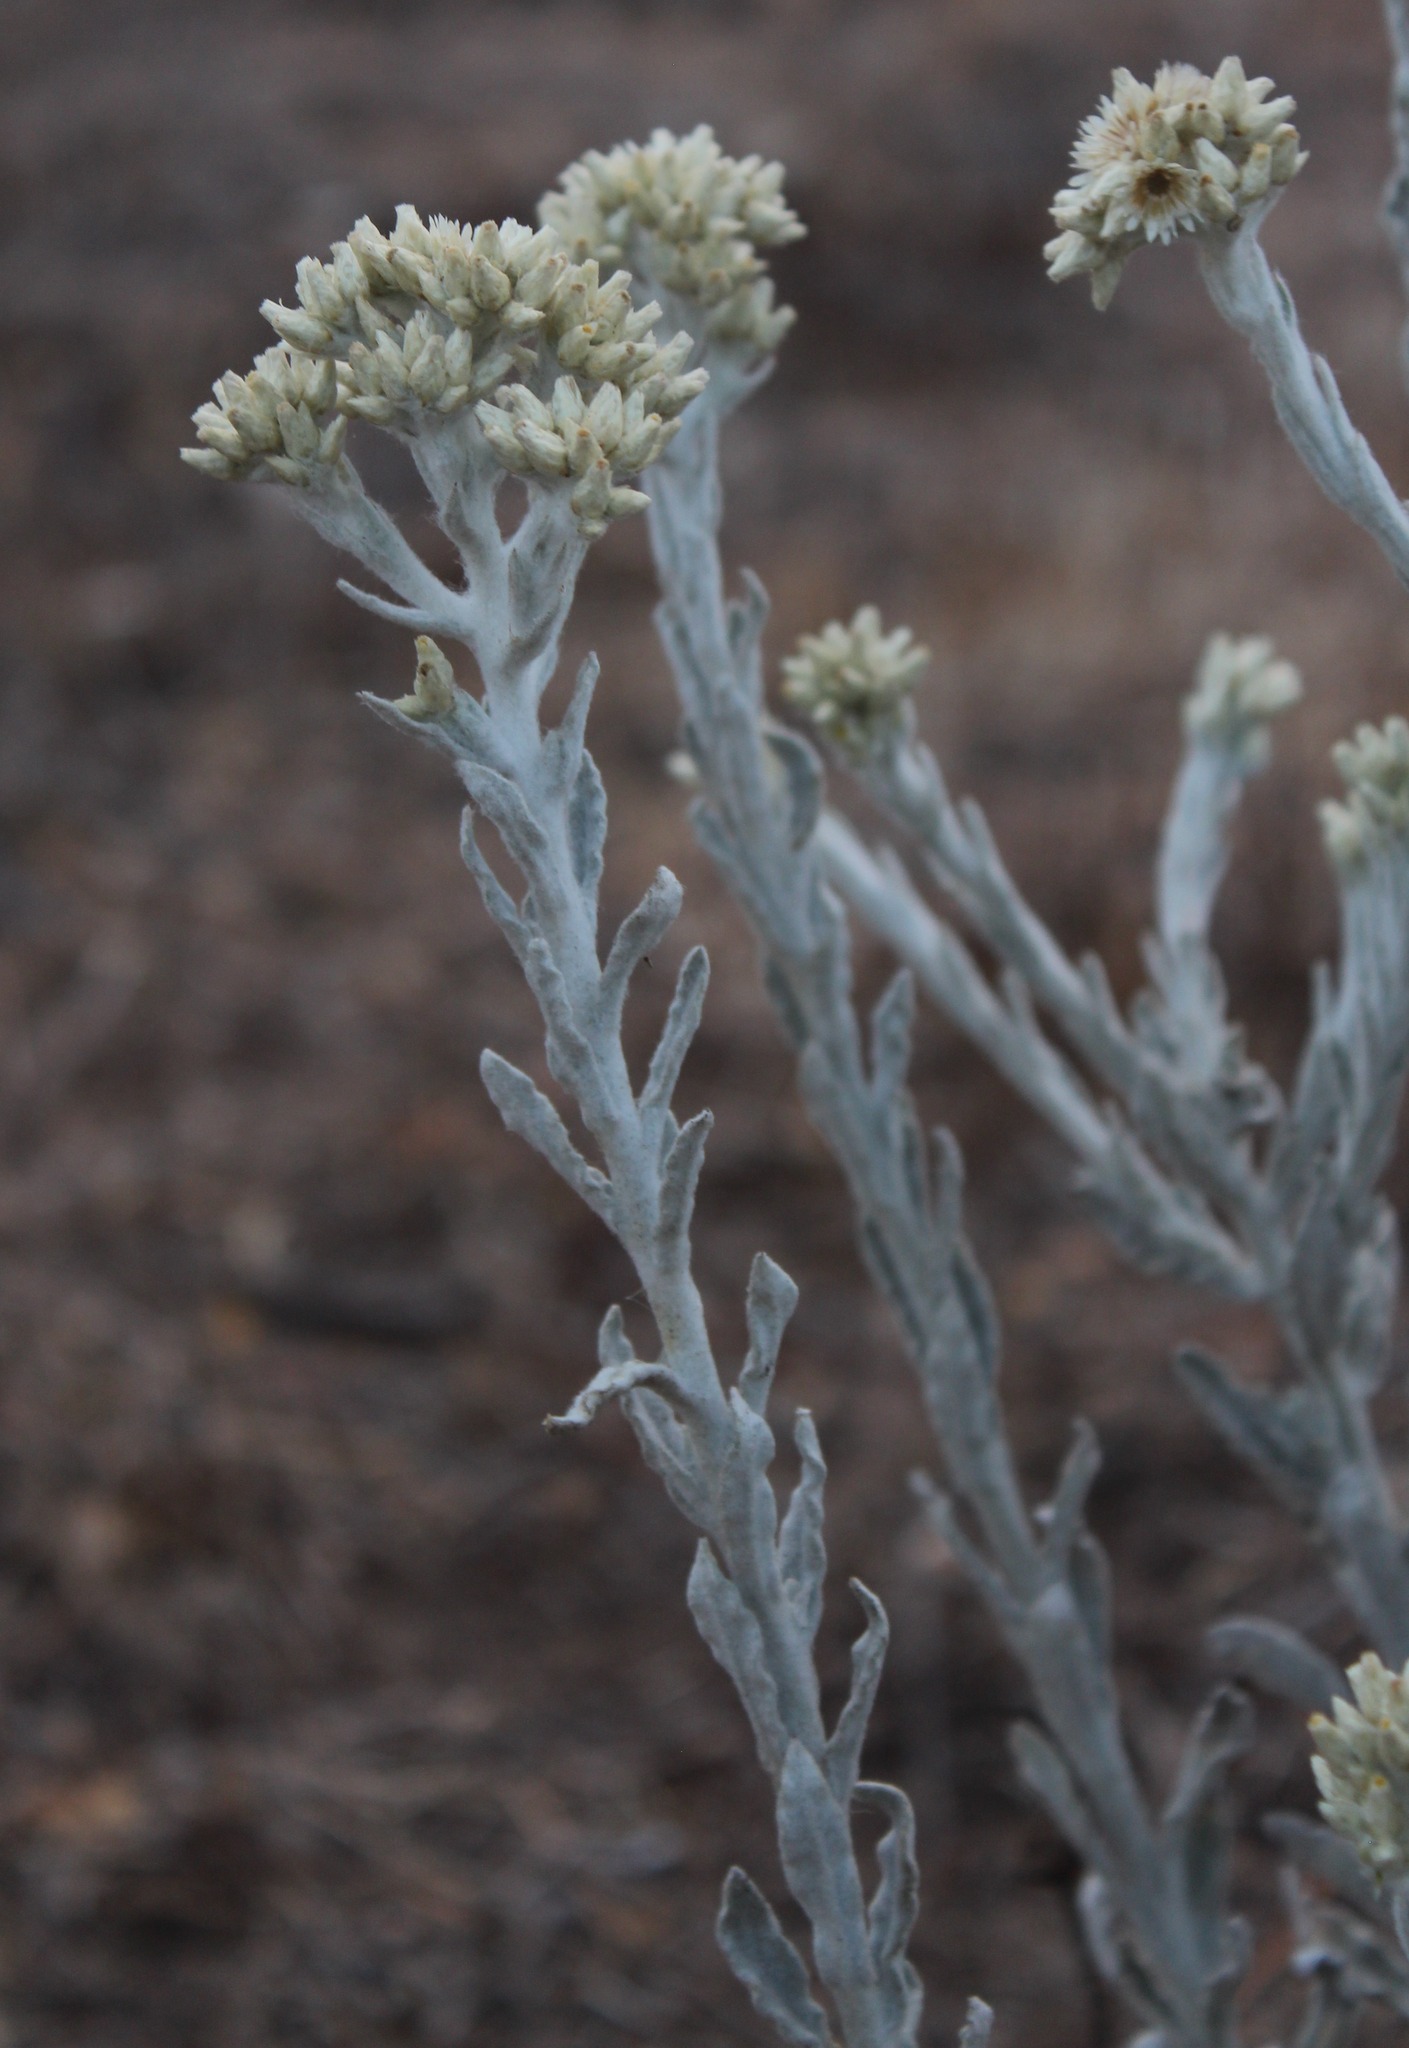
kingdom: Plantae
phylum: Tracheophyta
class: Magnoliopsida
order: Asterales
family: Asteraceae
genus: Pseudognaphalium
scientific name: Pseudognaphalium microcephalum
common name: San diego rabbit-tobacco
